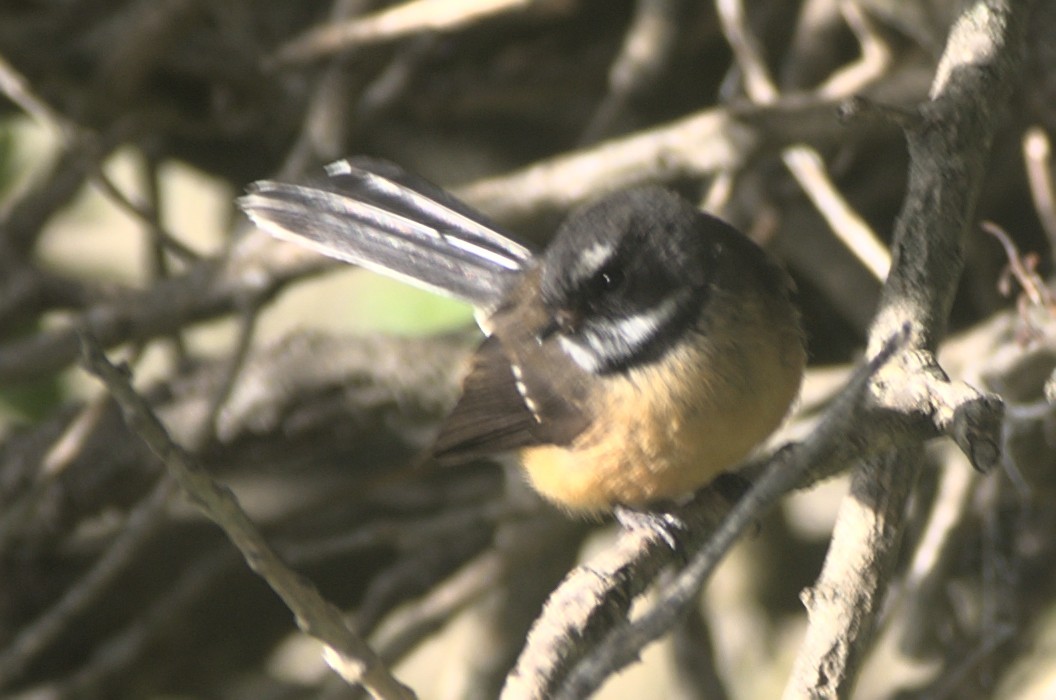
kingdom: Animalia
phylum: Chordata
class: Aves
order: Passeriformes
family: Rhipiduridae
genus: Rhipidura
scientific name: Rhipidura fuliginosa
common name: New zealand fantail
